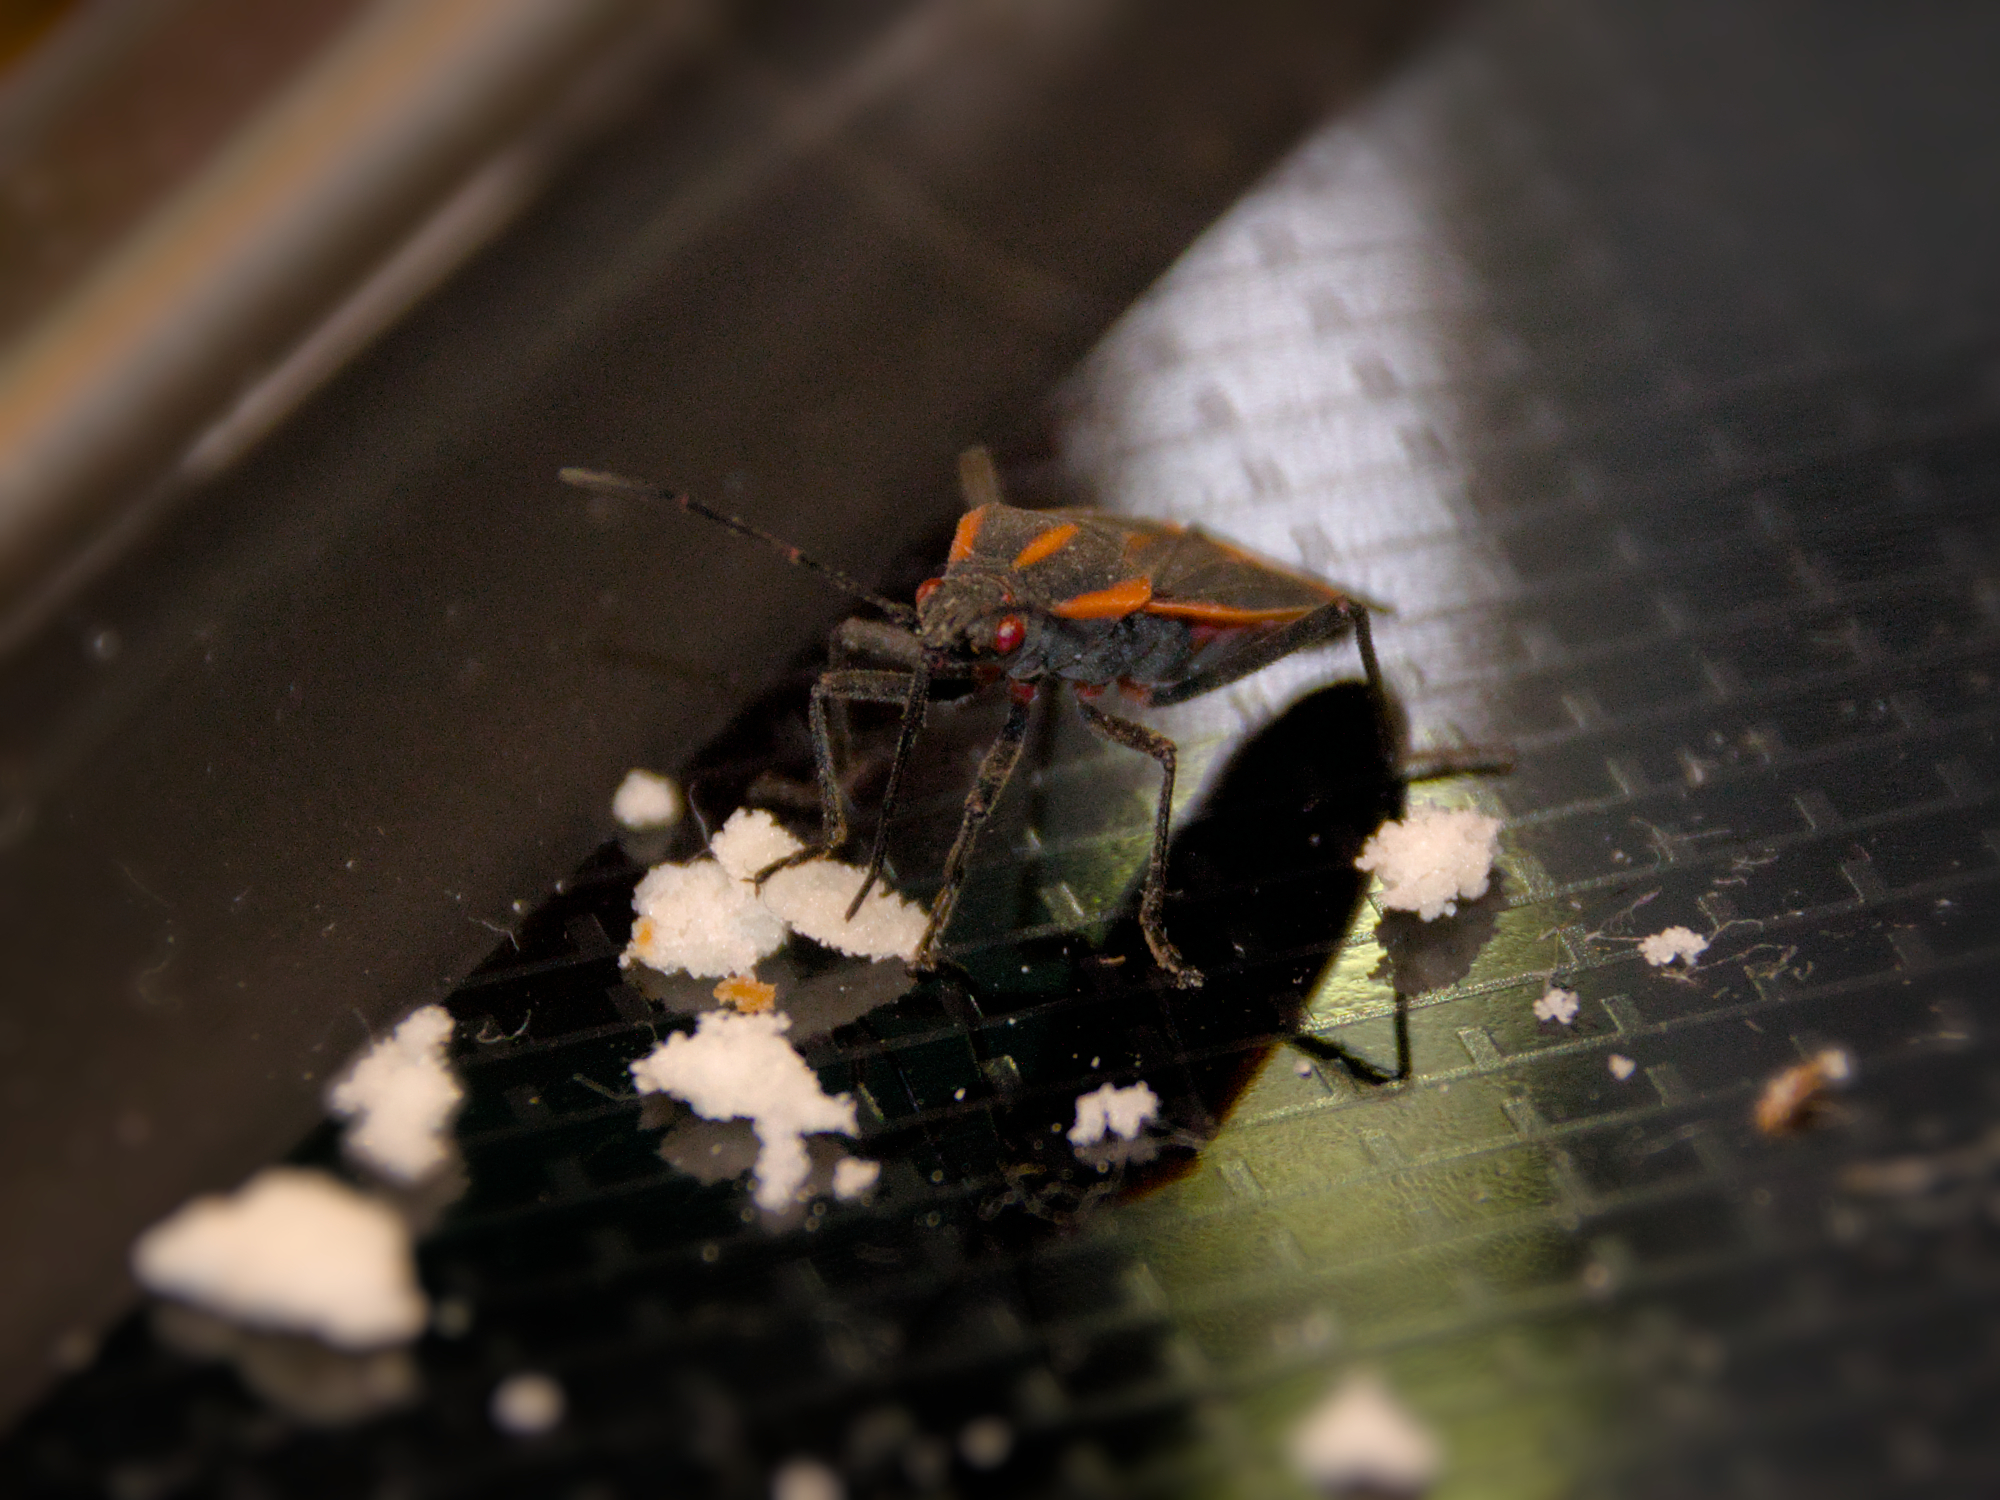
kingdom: Animalia
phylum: Arthropoda
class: Insecta
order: Hemiptera
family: Rhopalidae
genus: Boisea
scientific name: Boisea trivittata
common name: Boxelder bug
